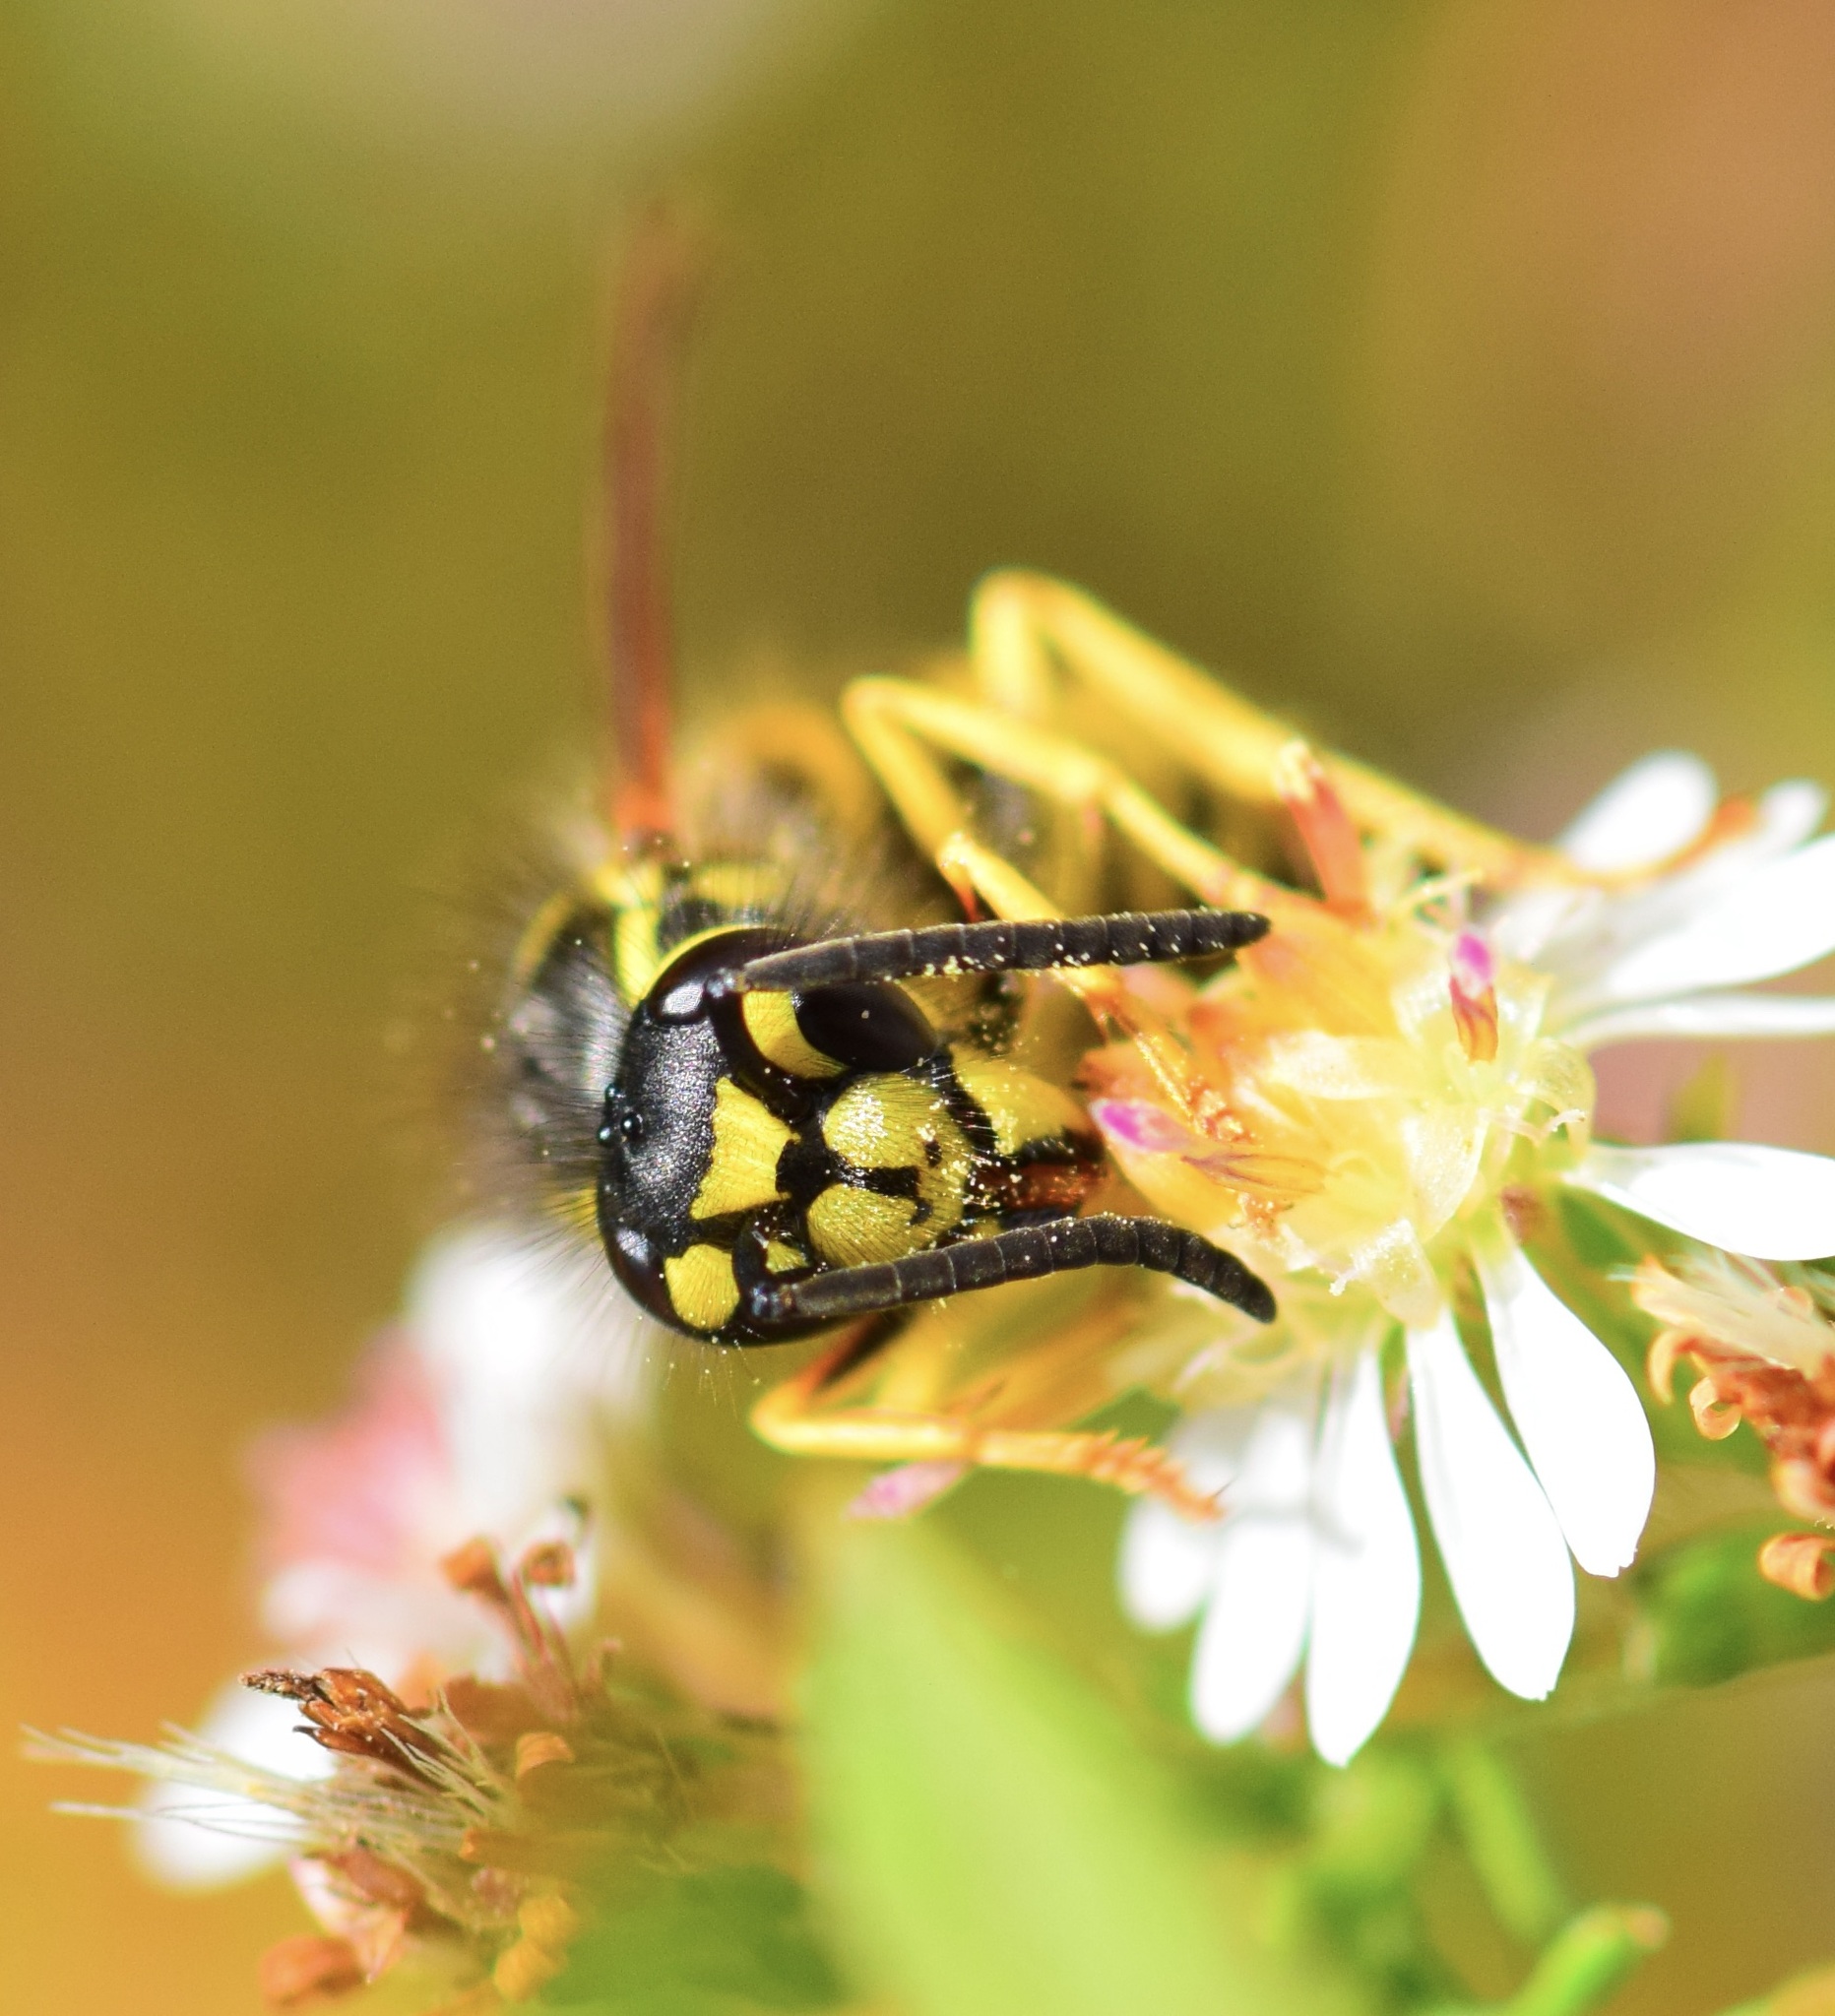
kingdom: Animalia
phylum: Arthropoda
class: Insecta
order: Hymenoptera
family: Vespidae
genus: Vespula
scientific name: Vespula maculifrons
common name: Eastern yellowjacket
